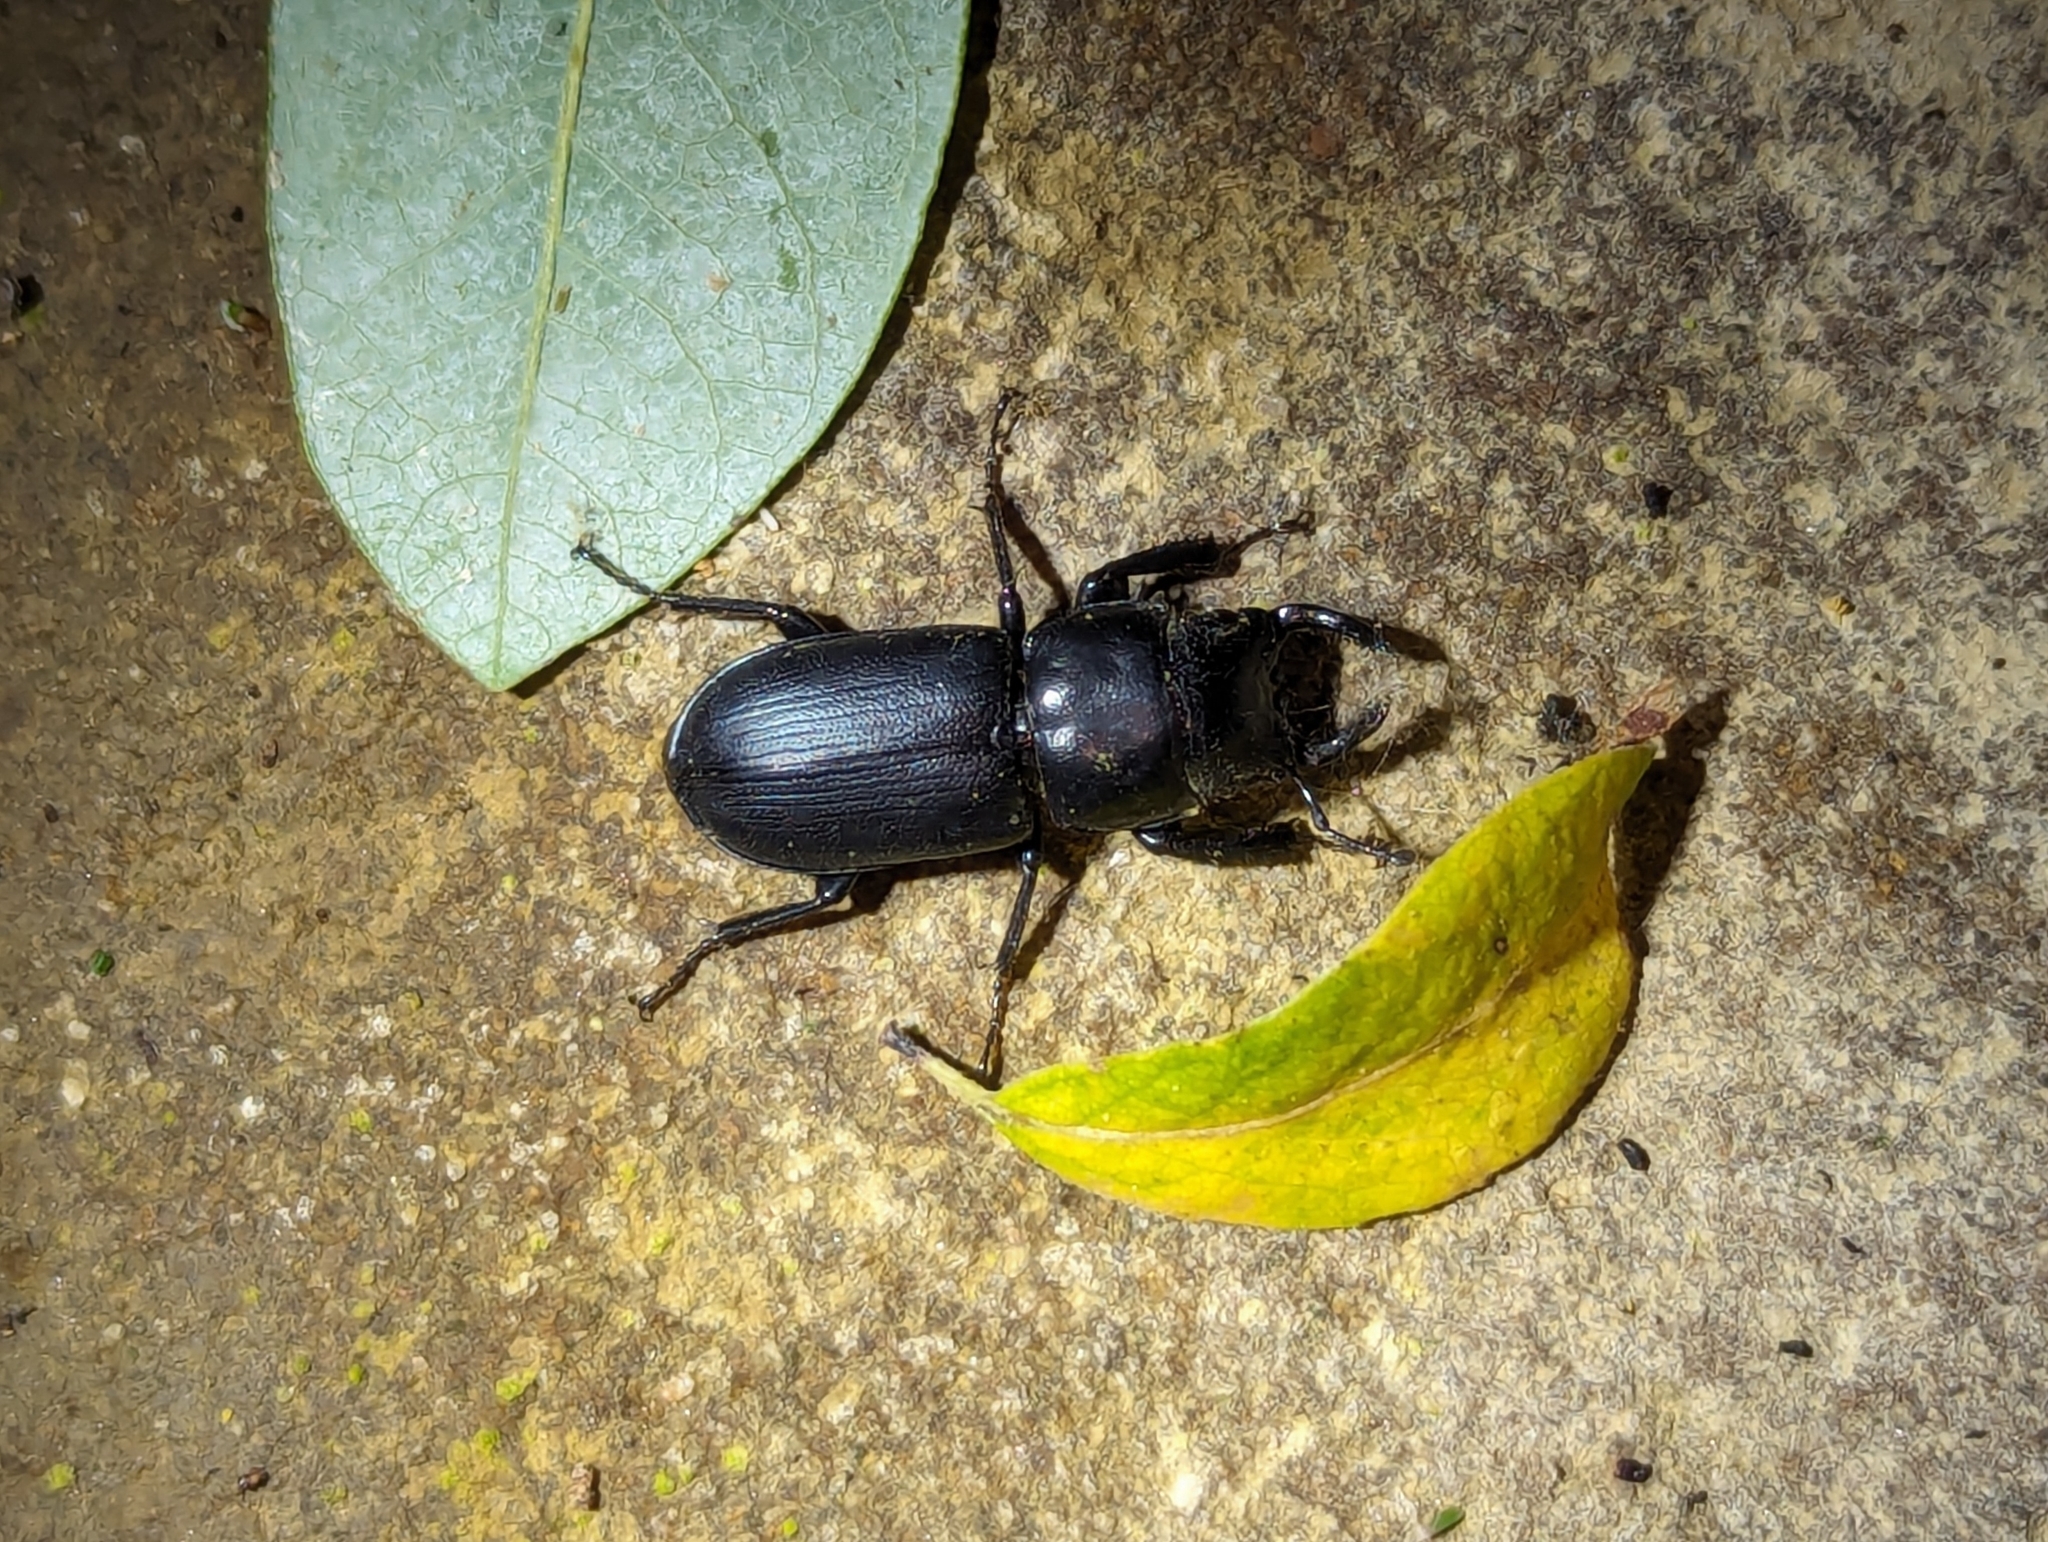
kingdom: Animalia
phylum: Arthropoda
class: Insecta
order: Coleoptera
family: Lucanidae
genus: Platycerus
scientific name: Platycerus oregonensis
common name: Oregon stag beetle
